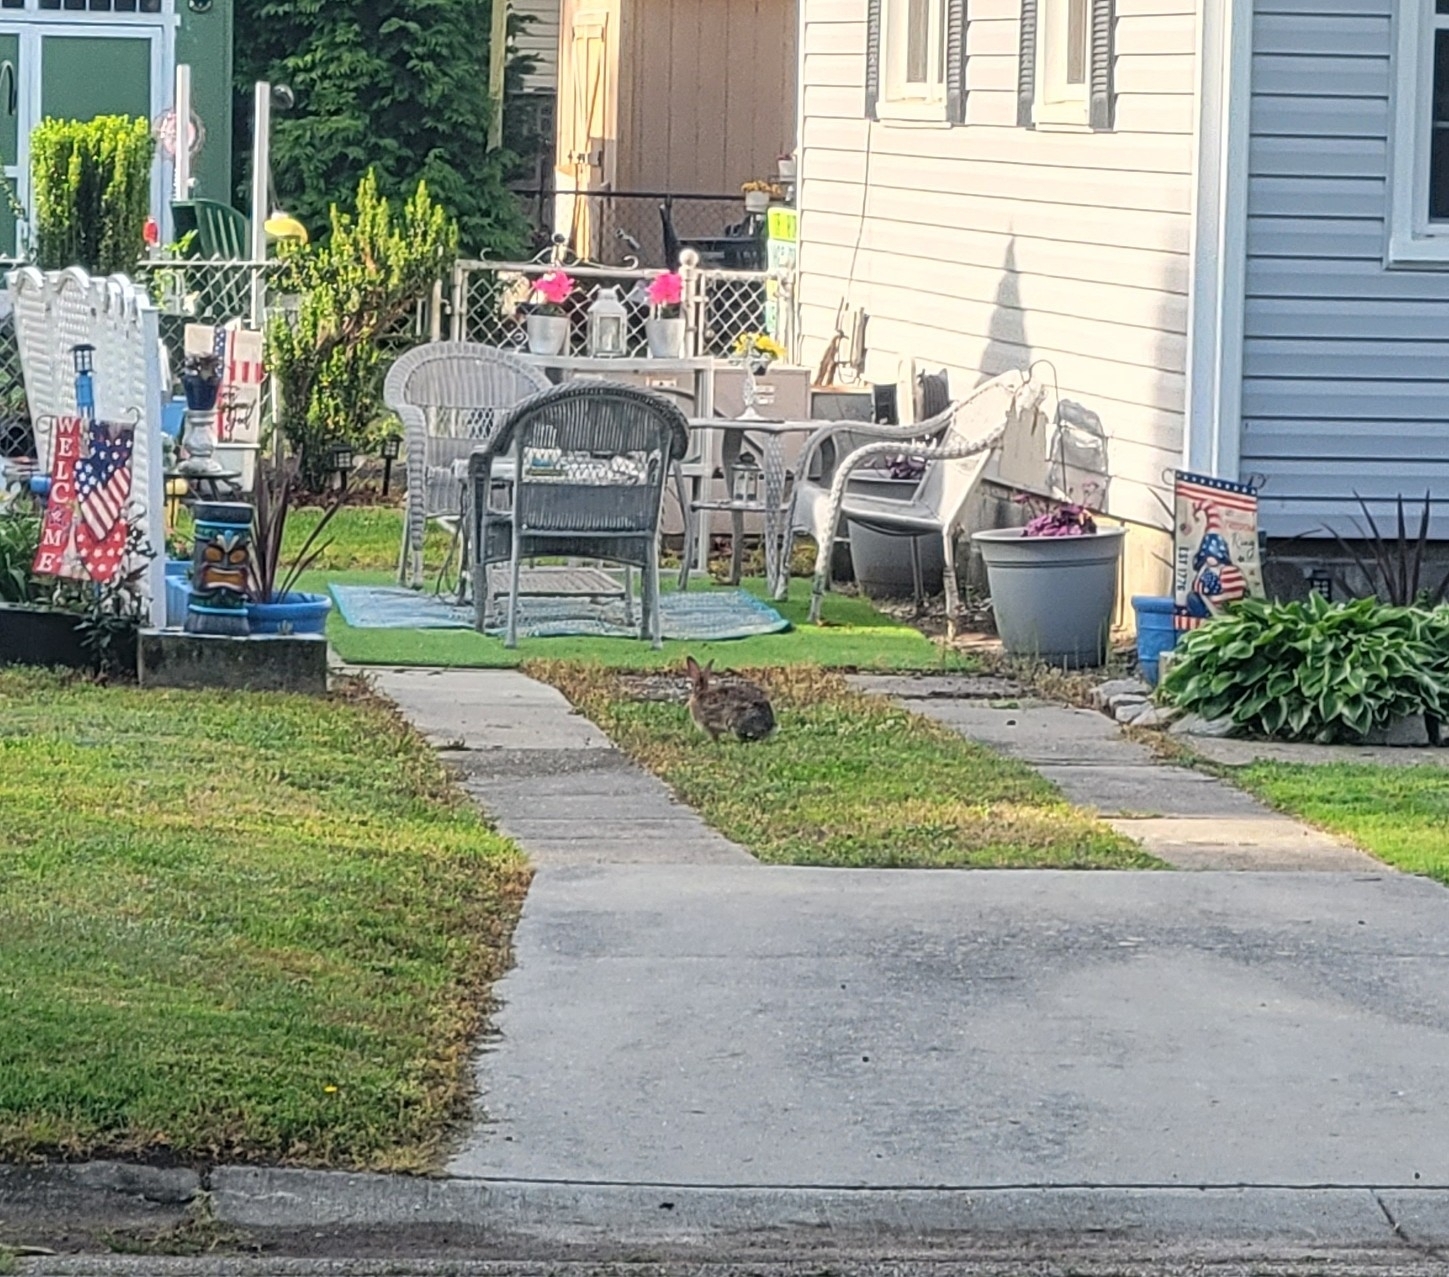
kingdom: Animalia
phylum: Chordata
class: Mammalia
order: Lagomorpha
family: Leporidae
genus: Sylvilagus
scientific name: Sylvilagus floridanus
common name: Eastern cottontail
